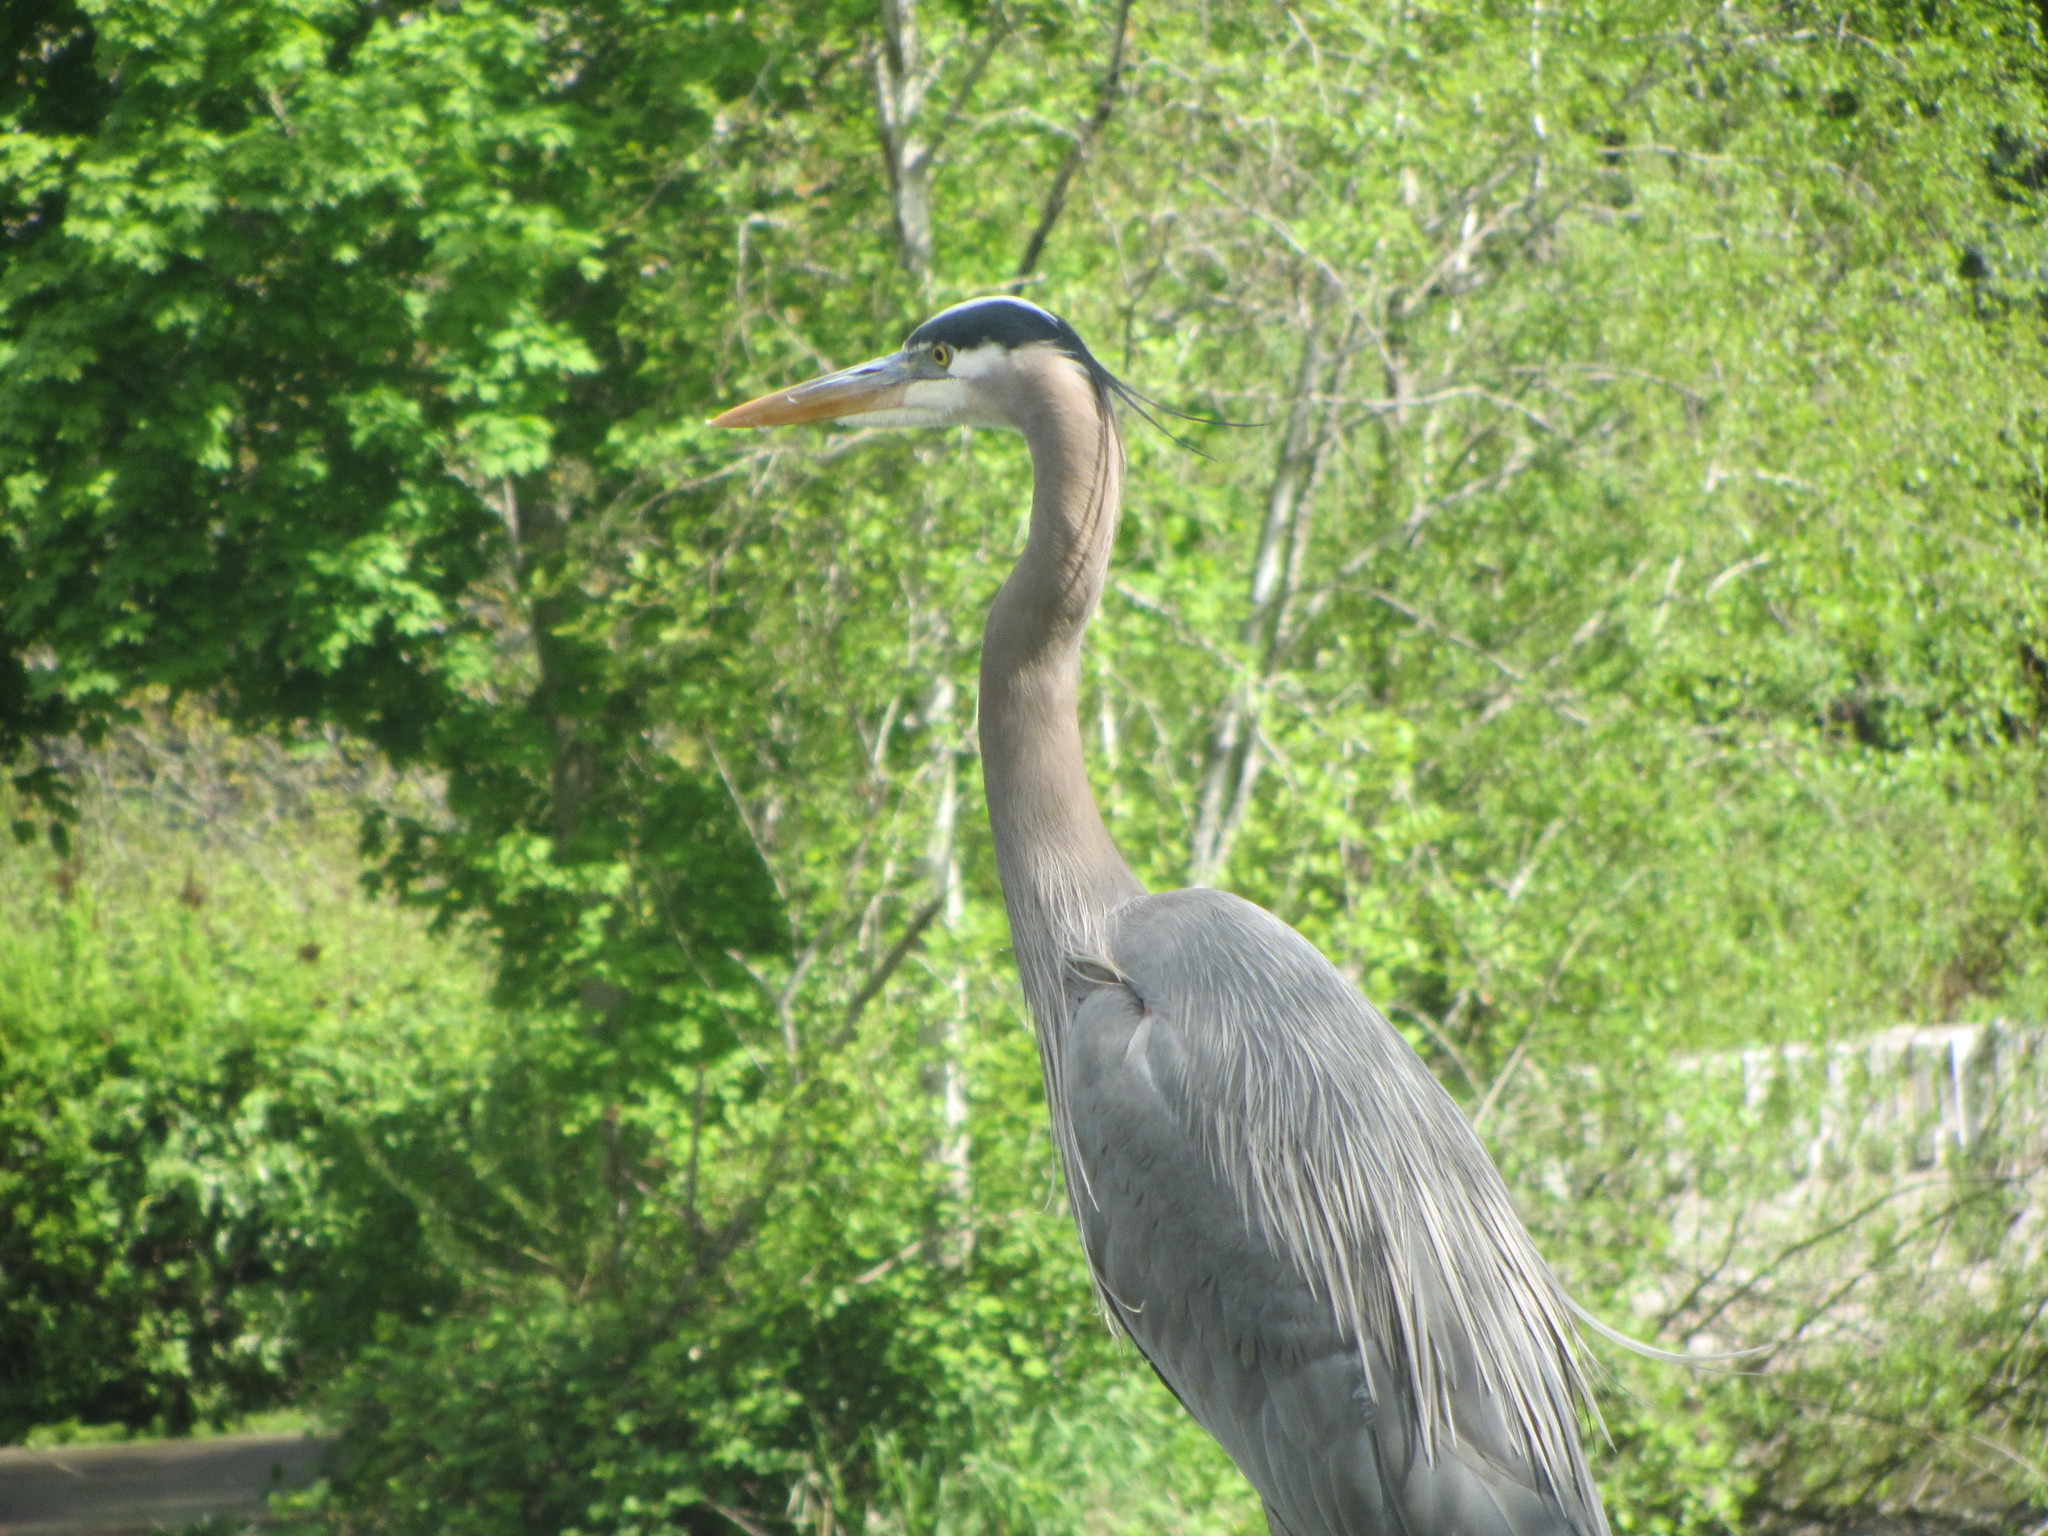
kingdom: Animalia
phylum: Chordata
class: Aves
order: Pelecaniformes
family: Ardeidae
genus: Ardea
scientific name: Ardea herodias
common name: Great blue heron
